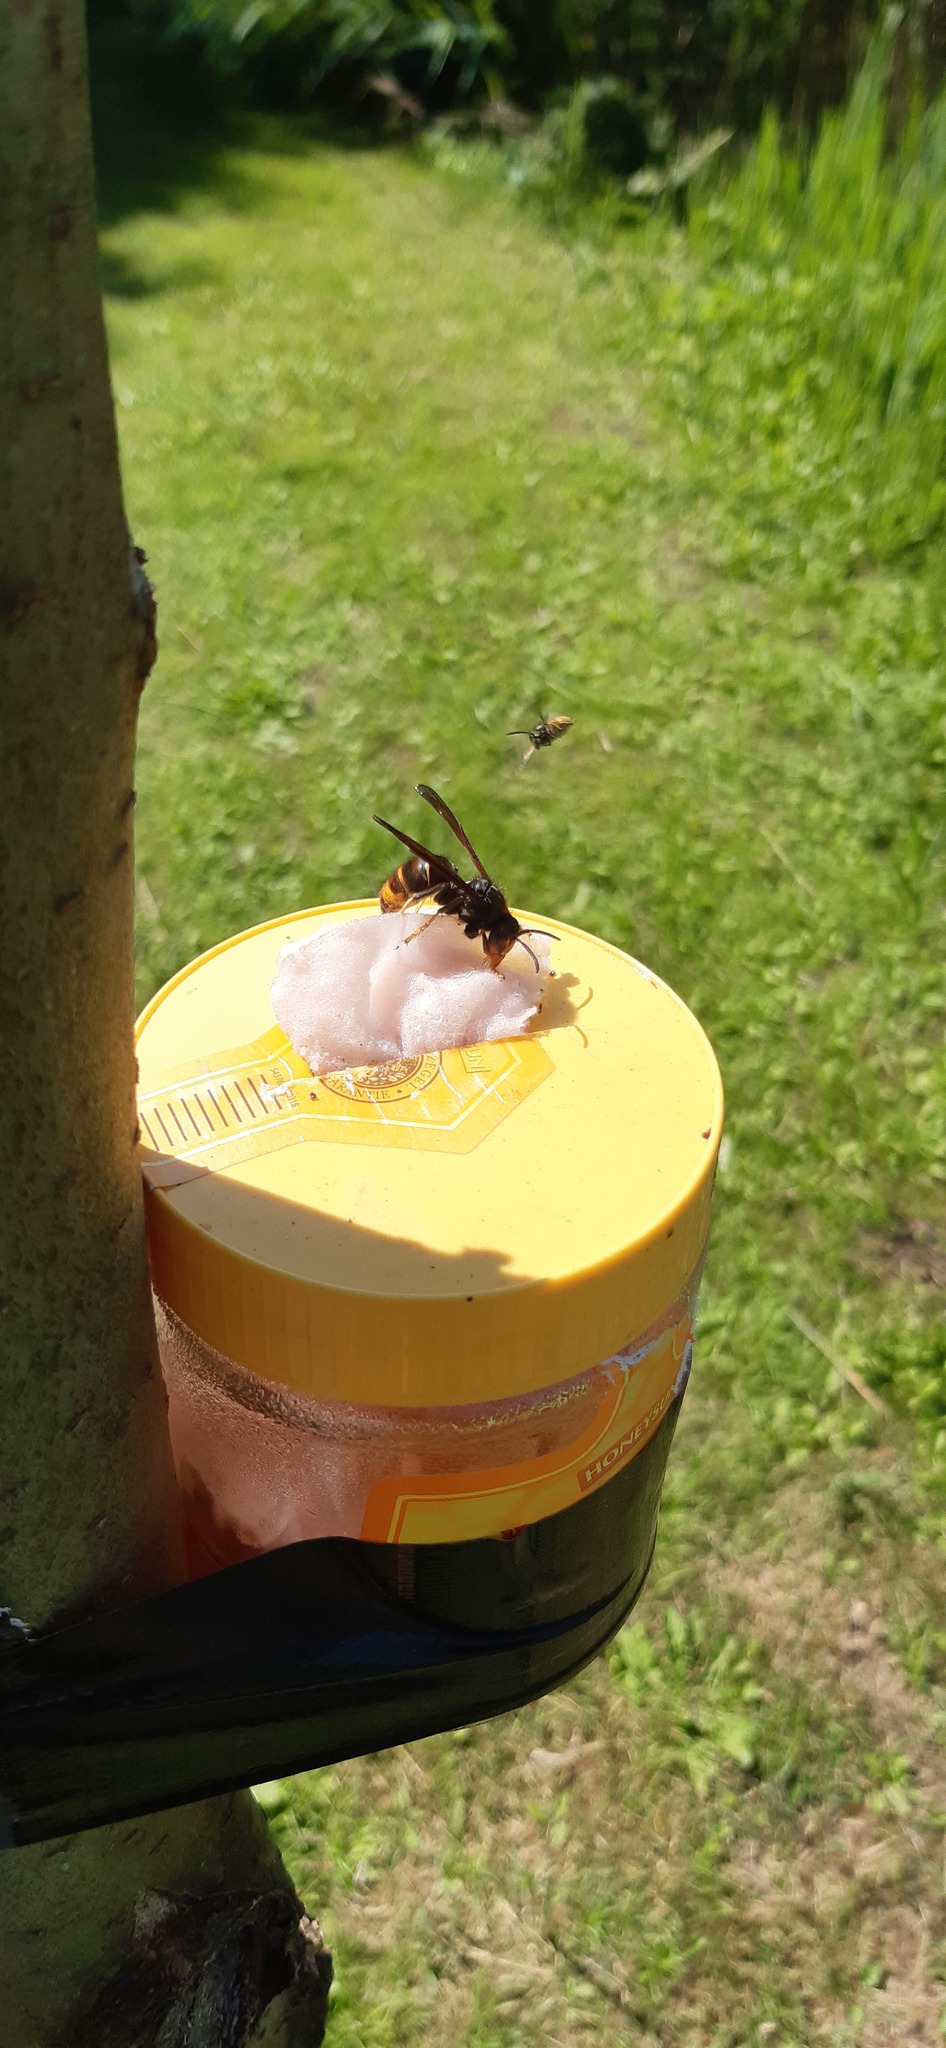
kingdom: Animalia
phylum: Arthropoda
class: Insecta
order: Hymenoptera
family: Vespidae
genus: Vespa
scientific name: Vespa velutina
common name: Asian hornet
